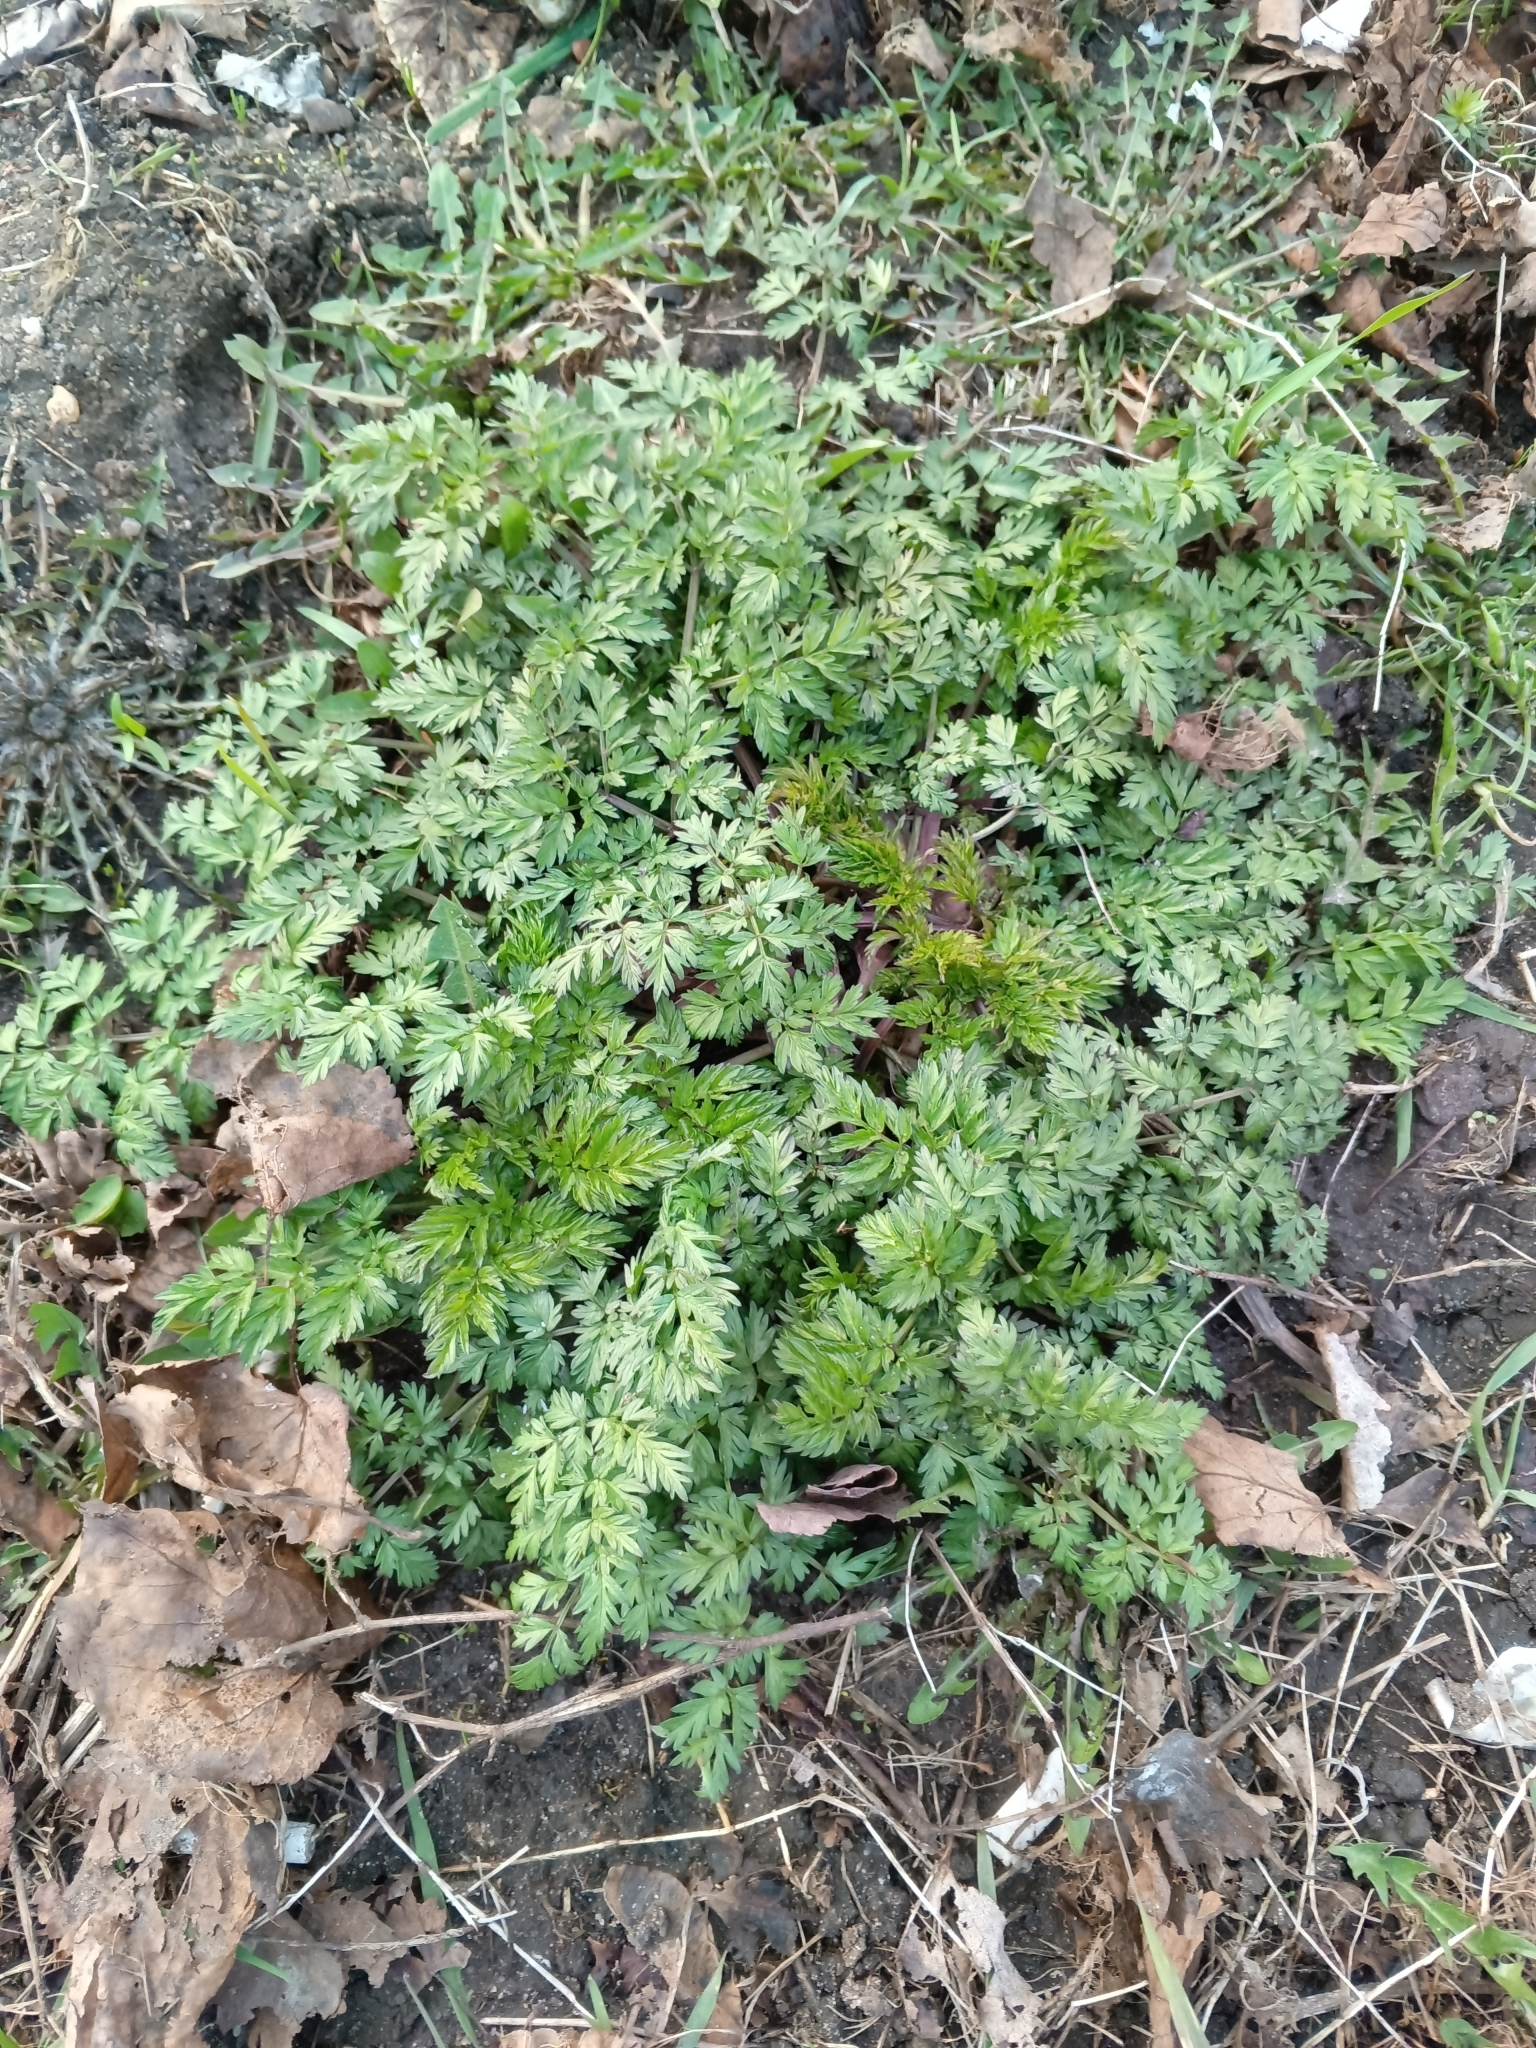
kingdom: Plantae
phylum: Tracheophyta
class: Magnoliopsida
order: Apiales
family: Apiaceae
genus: Anthriscus
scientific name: Anthriscus sylvestris
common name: Cow parsley
